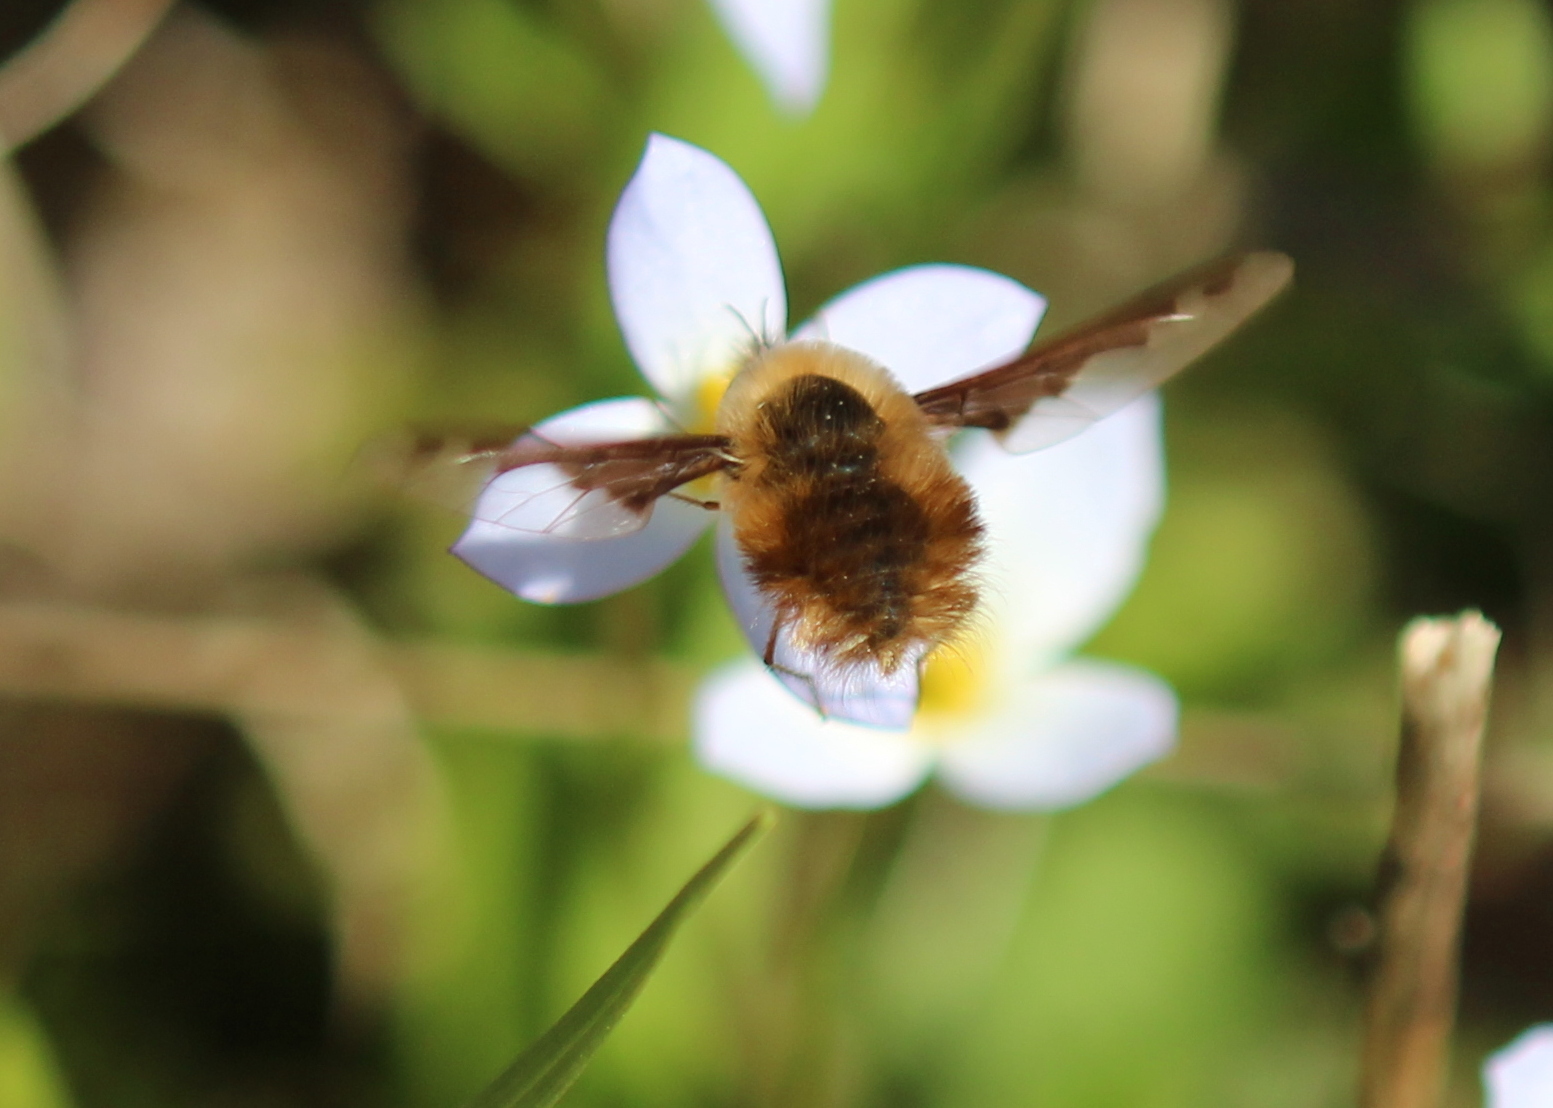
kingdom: Animalia
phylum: Arthropoda
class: Insecta
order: Diptera
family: Bombyliidae
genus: Bombylius
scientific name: Bombylius major
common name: Bee fly
